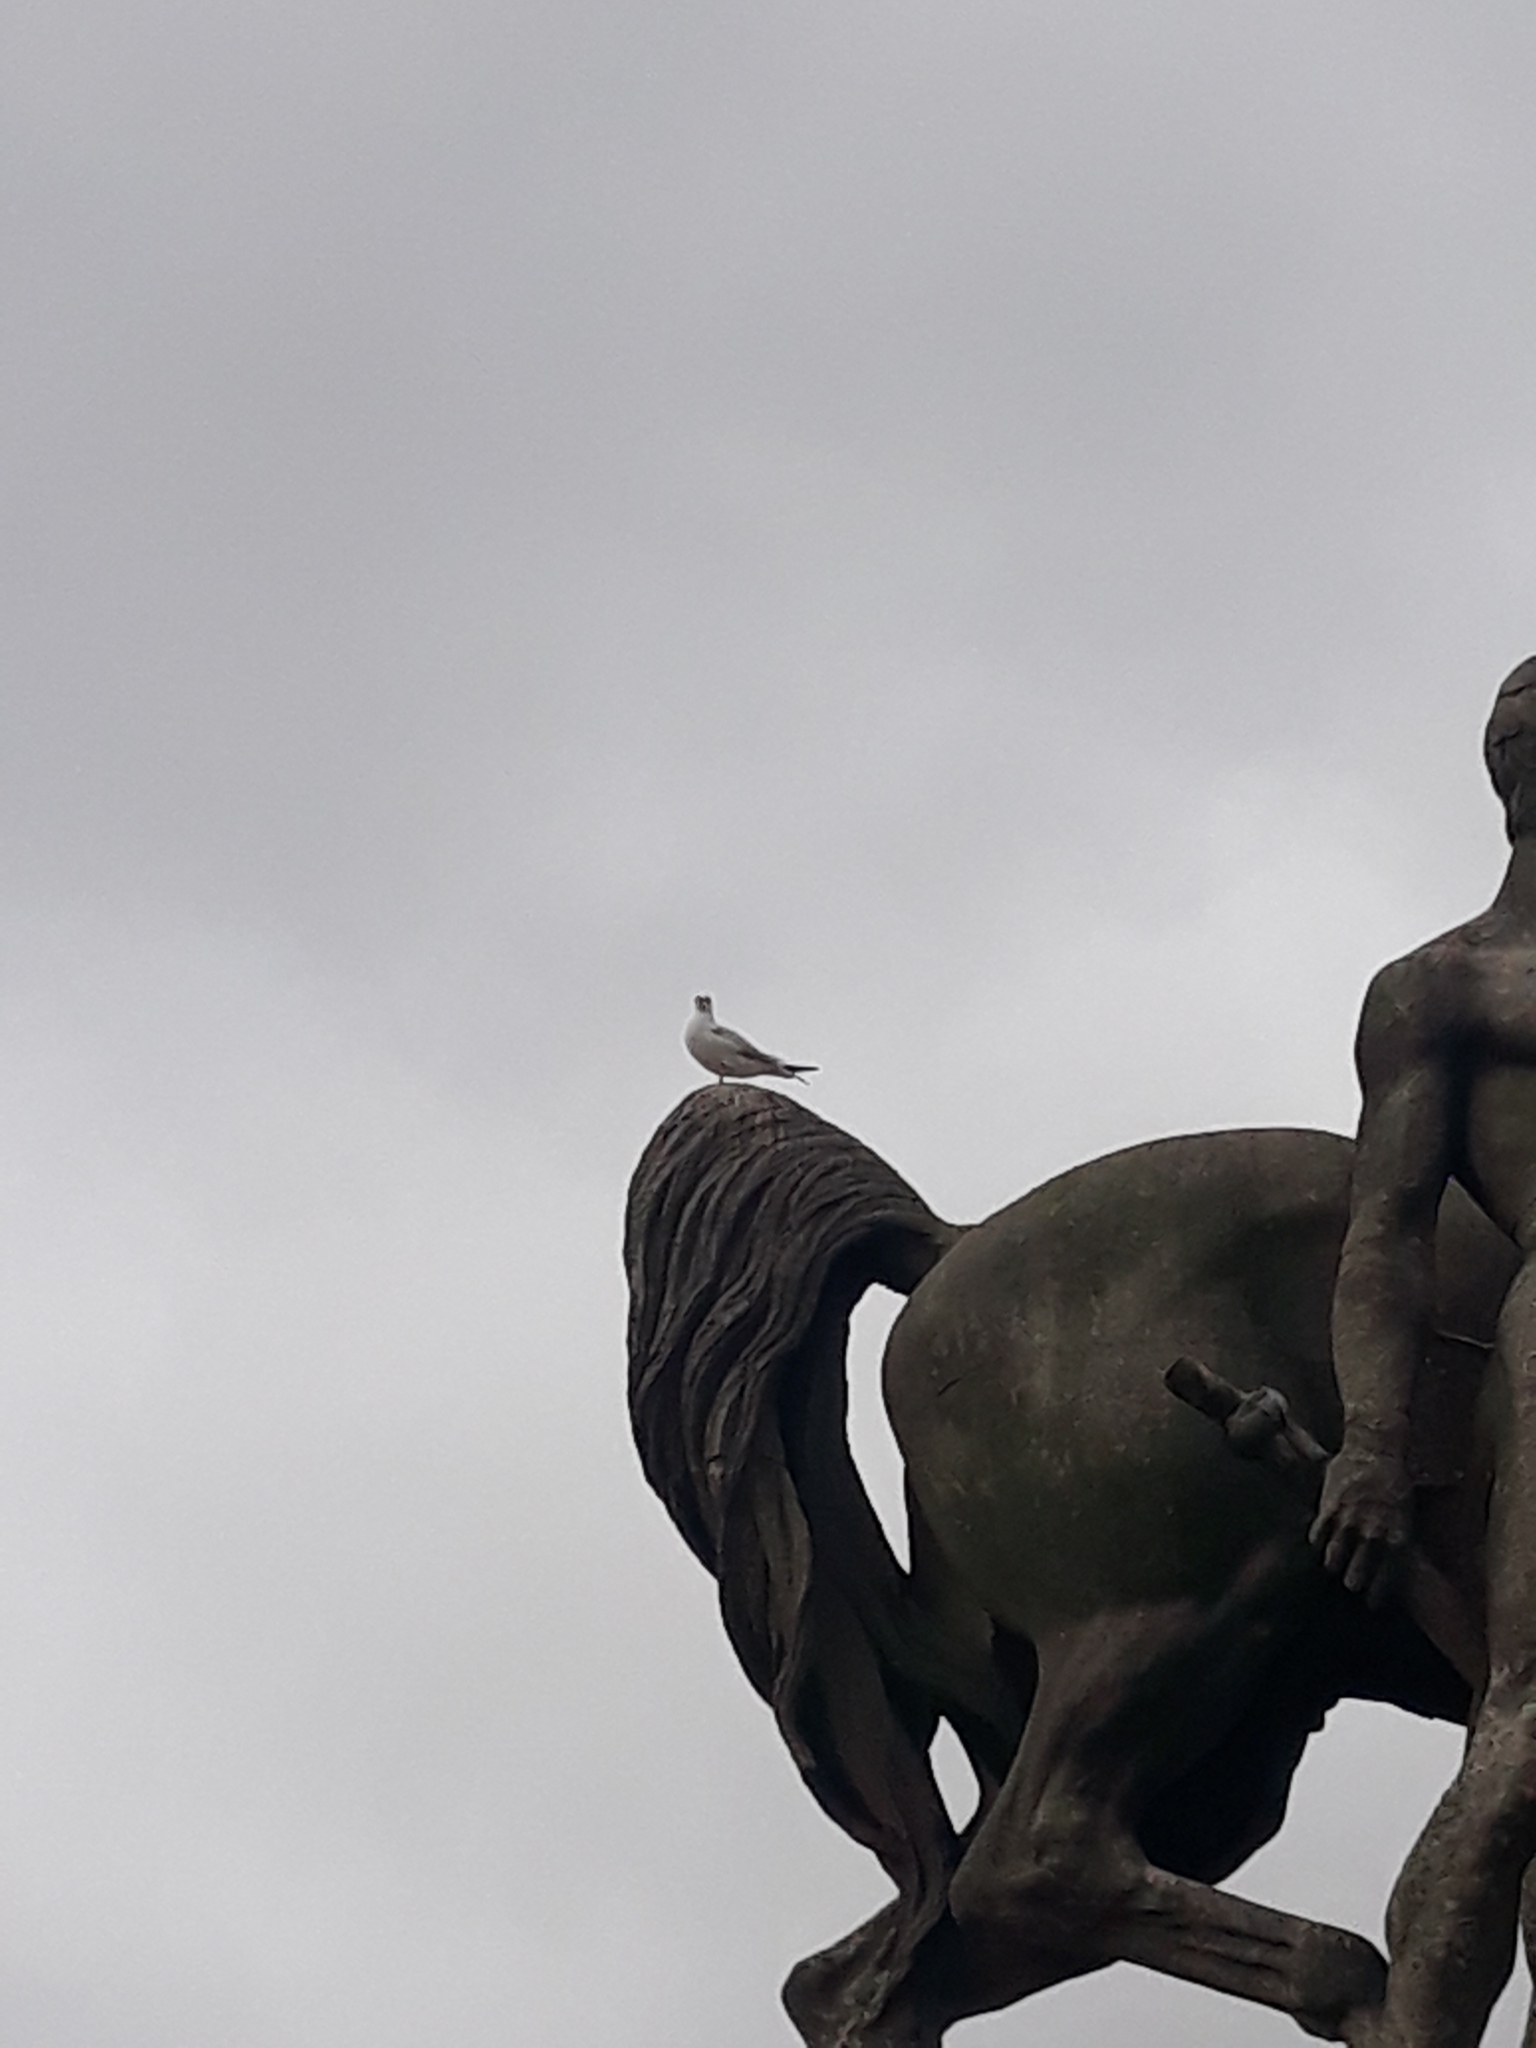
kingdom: Animalia
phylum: Chordata
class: Aves
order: Charadriiformes
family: Laridae
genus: Chroicocephalus
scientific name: Chroicocephalus ridibundus
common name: Black-headed gull
